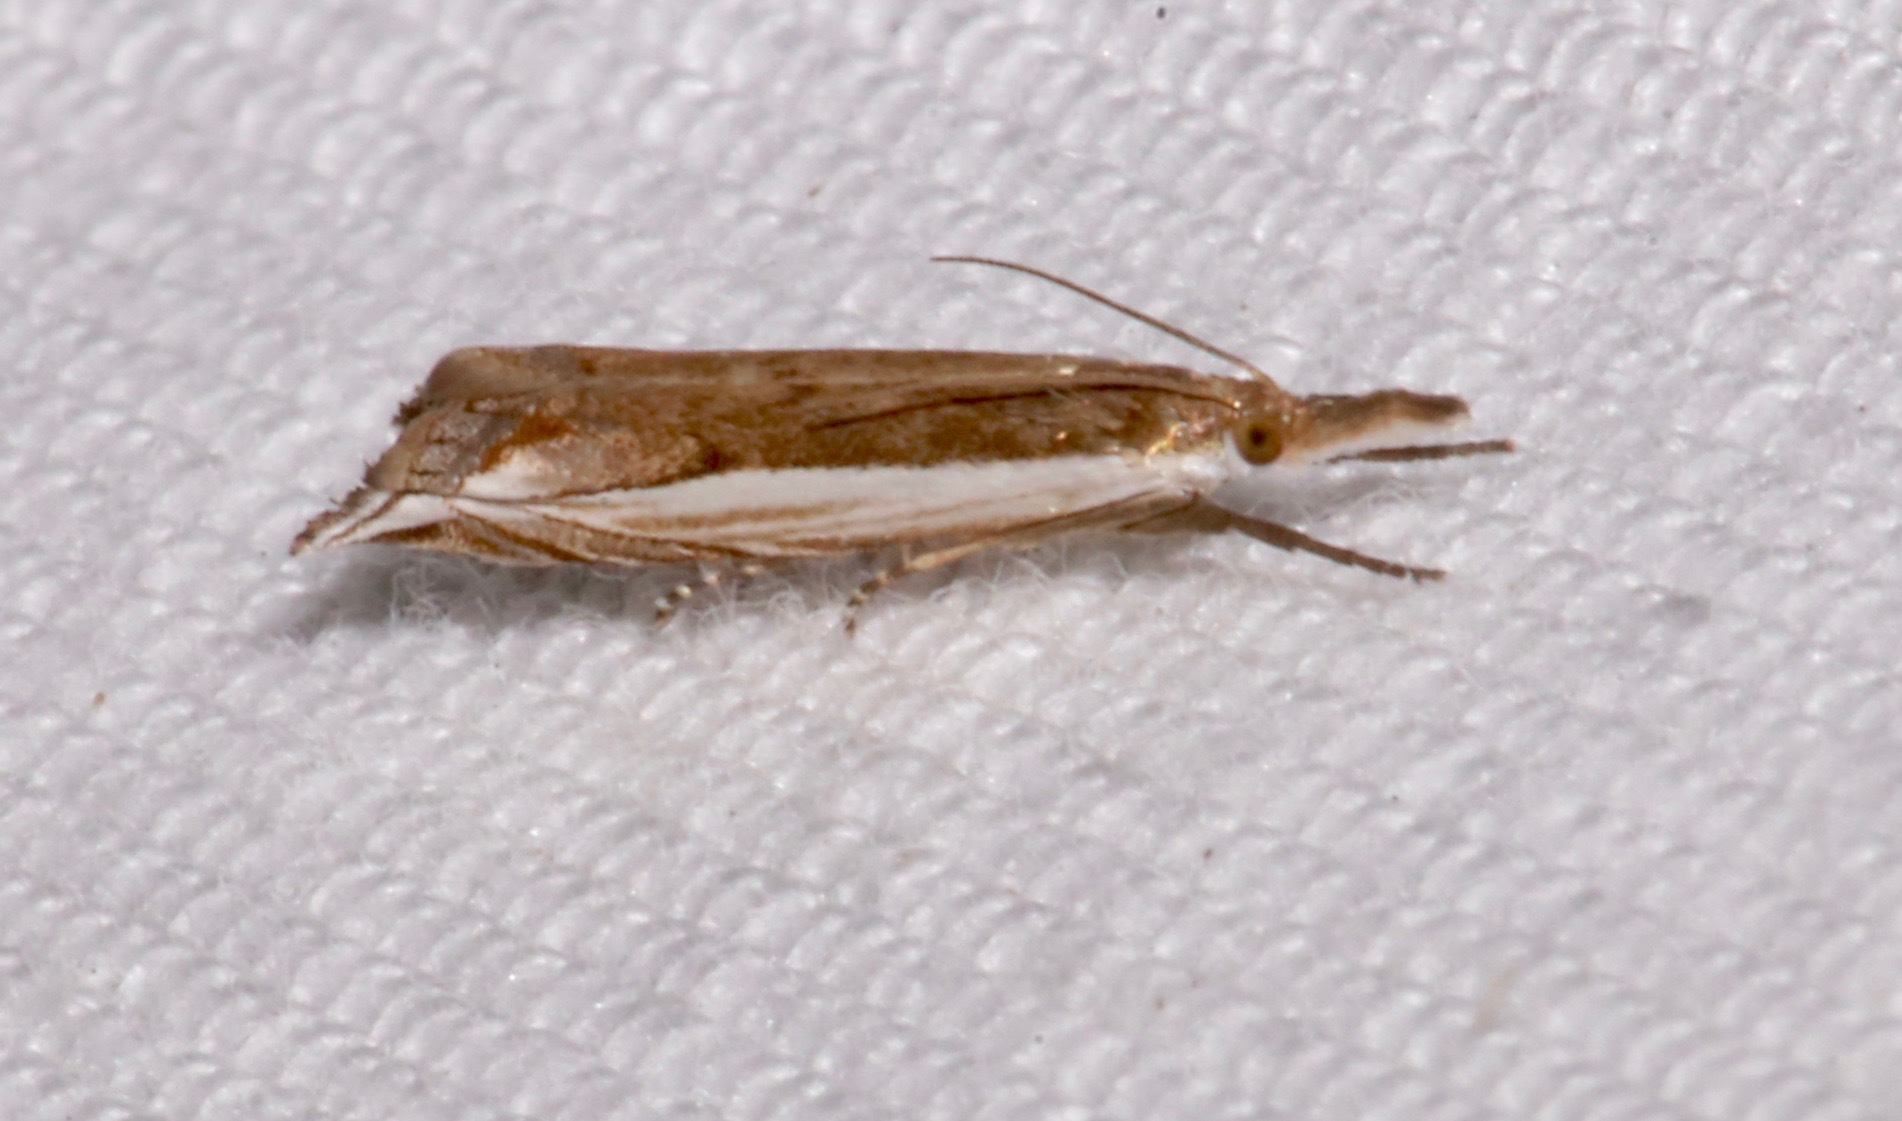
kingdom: Animalia
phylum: Arthropoda
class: Insecta
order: Lepidoptera
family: Crambidae
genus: Raphiptera
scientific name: Raphiptera argillaceellus
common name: Diminutive grass-veneer
